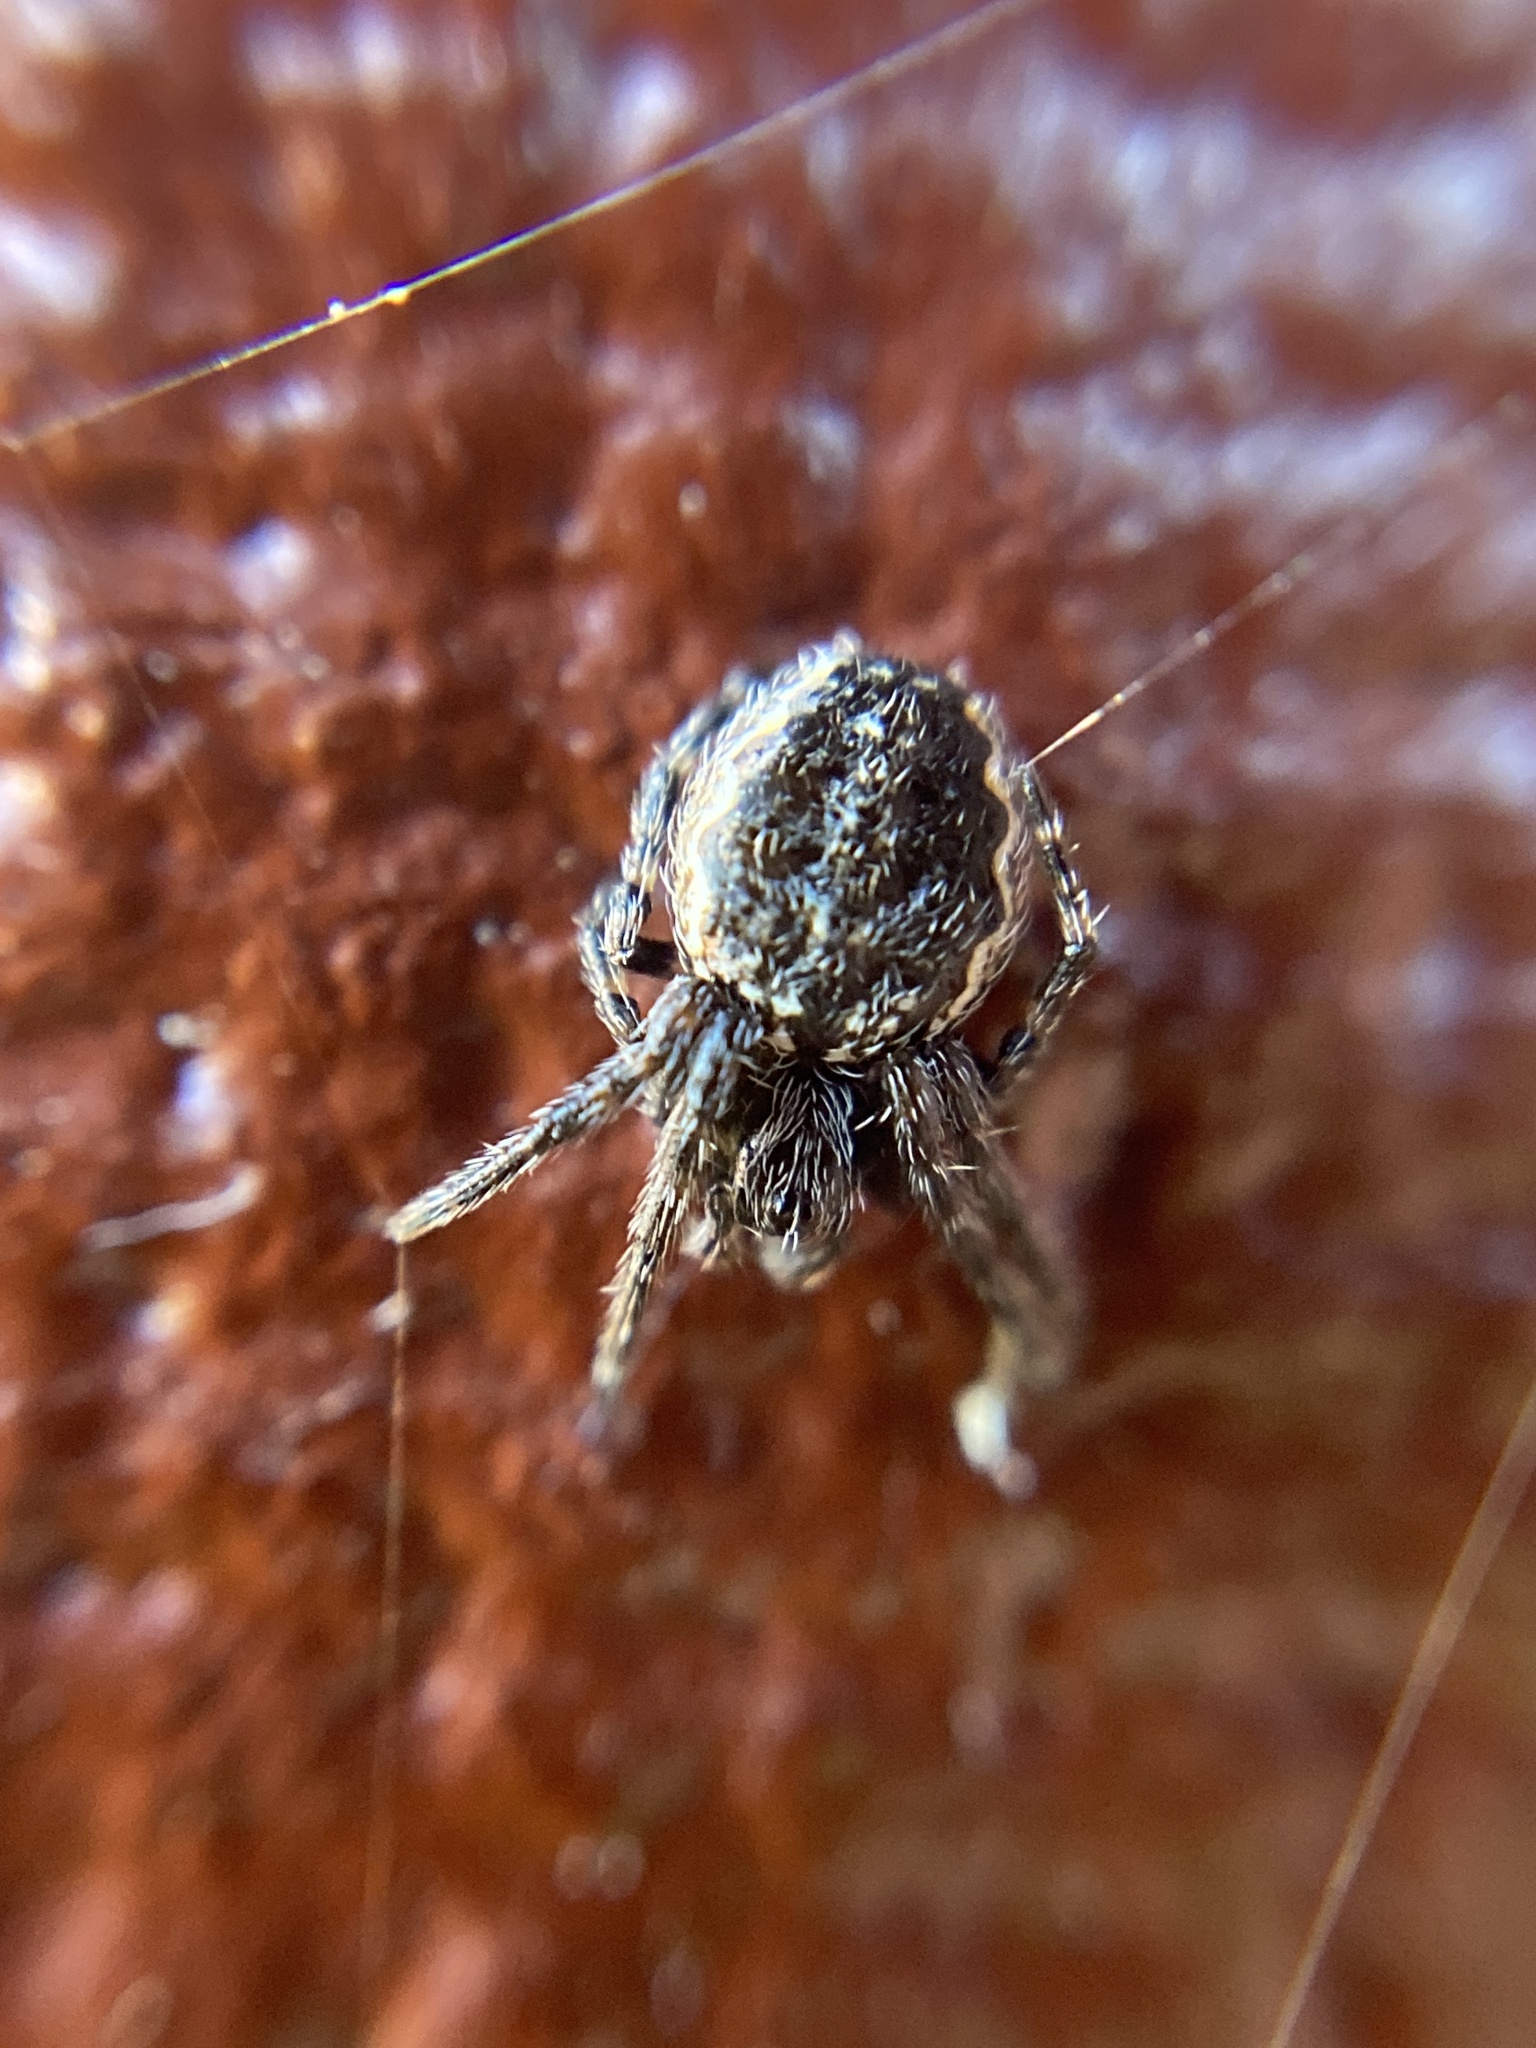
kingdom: Animalia
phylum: Arthropoda
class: Arachnida
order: Araneae
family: Araneidae
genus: Nuctenea
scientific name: Nuctenea umbratica
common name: Toad spider
